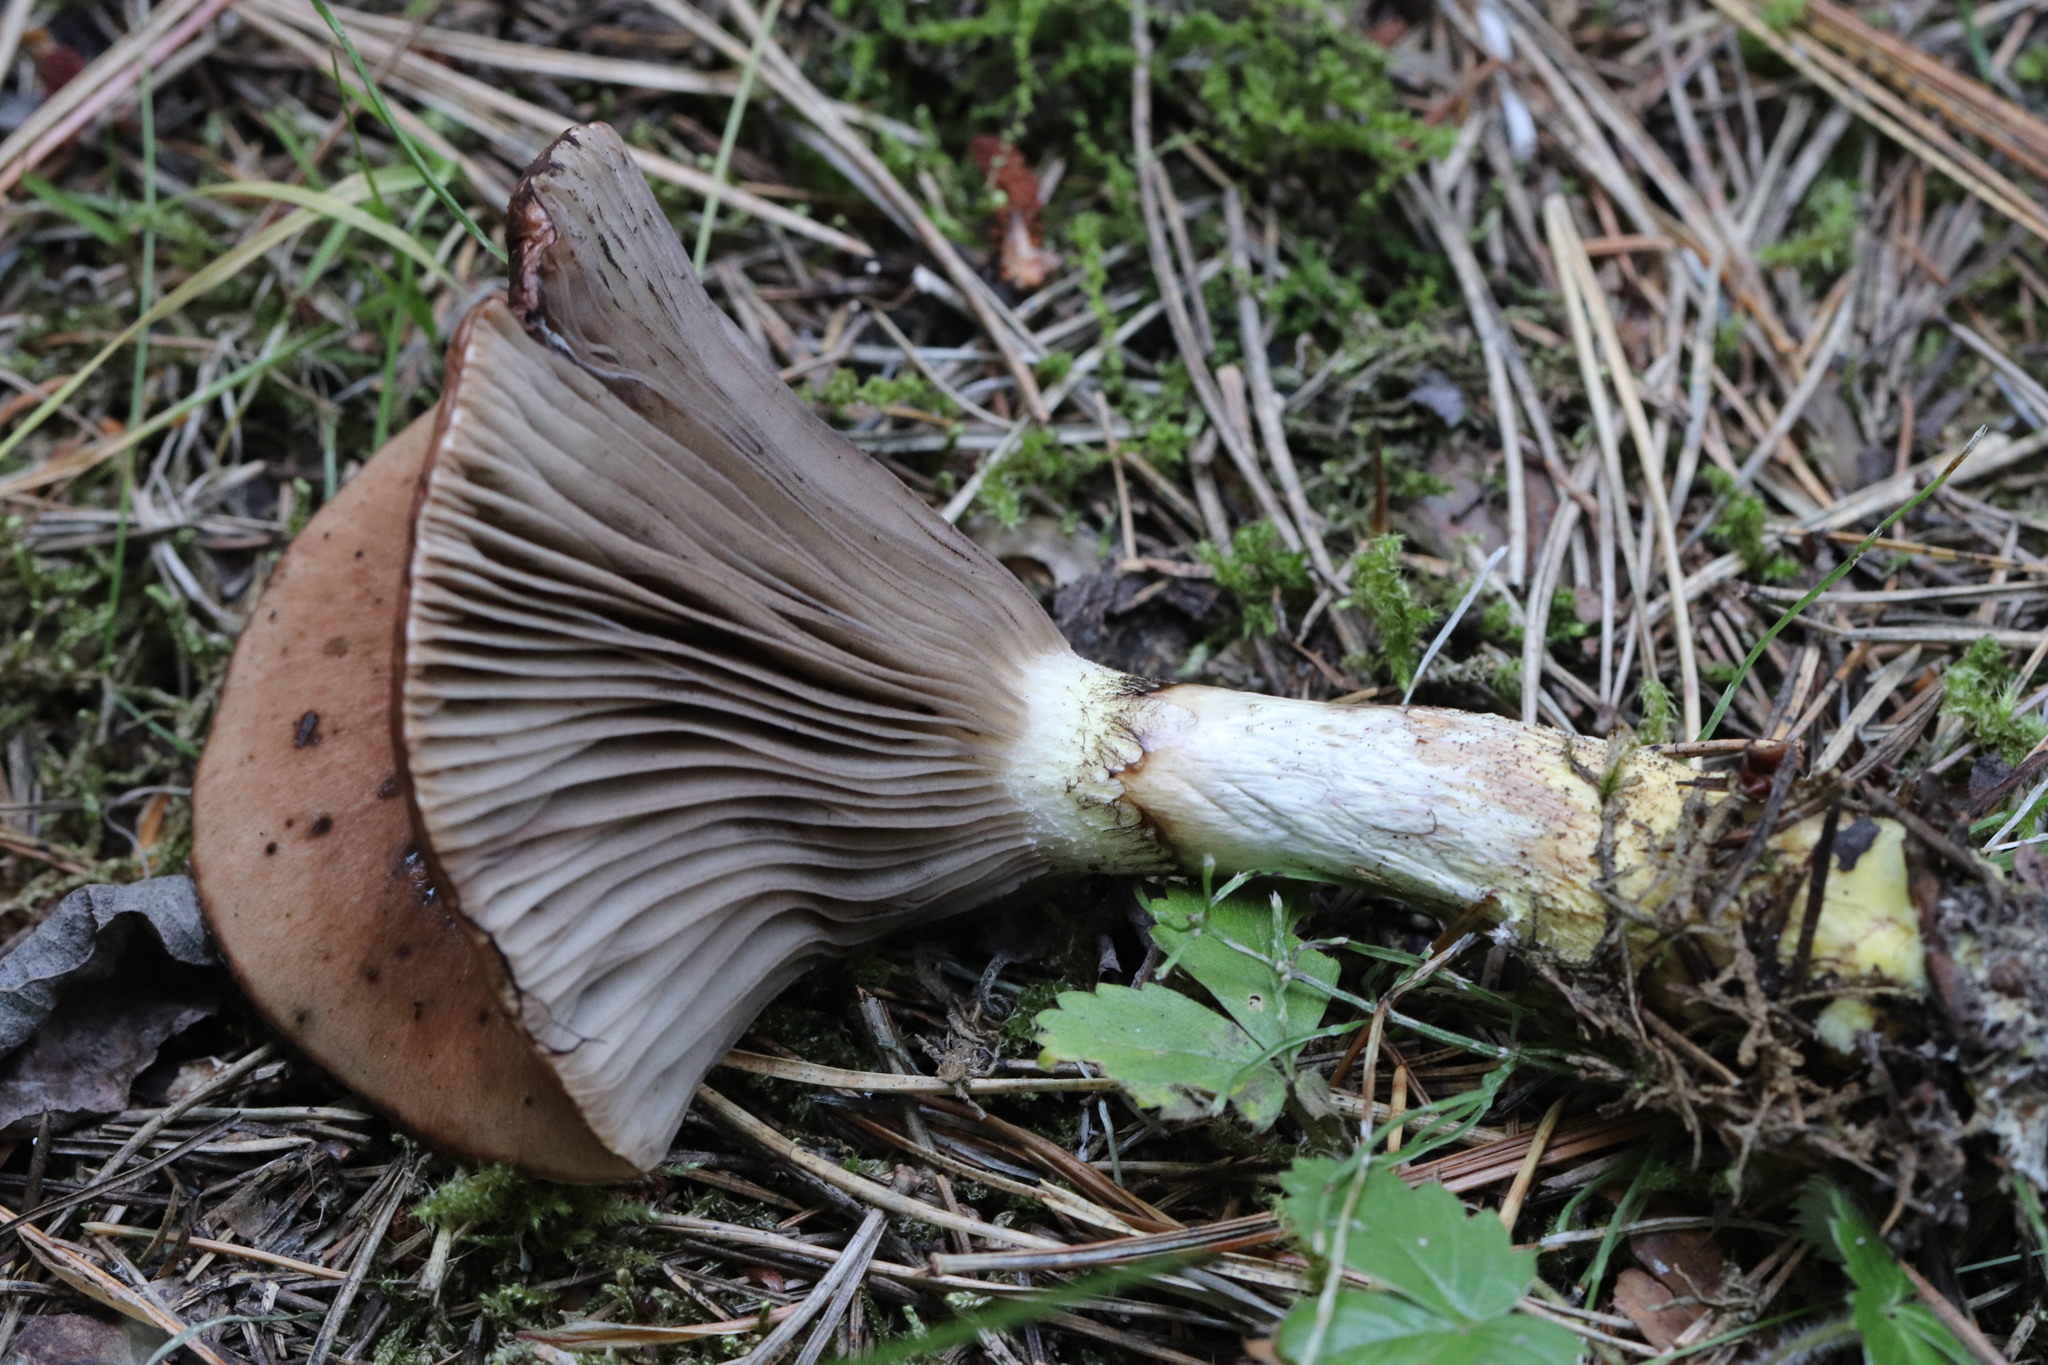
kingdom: Fungi
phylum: Basidiomycota
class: Agaricomycetes
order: Boletales
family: Gomphidiaceae
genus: Gomphidius
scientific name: Gomphidius glutinosus
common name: Slimy spike
